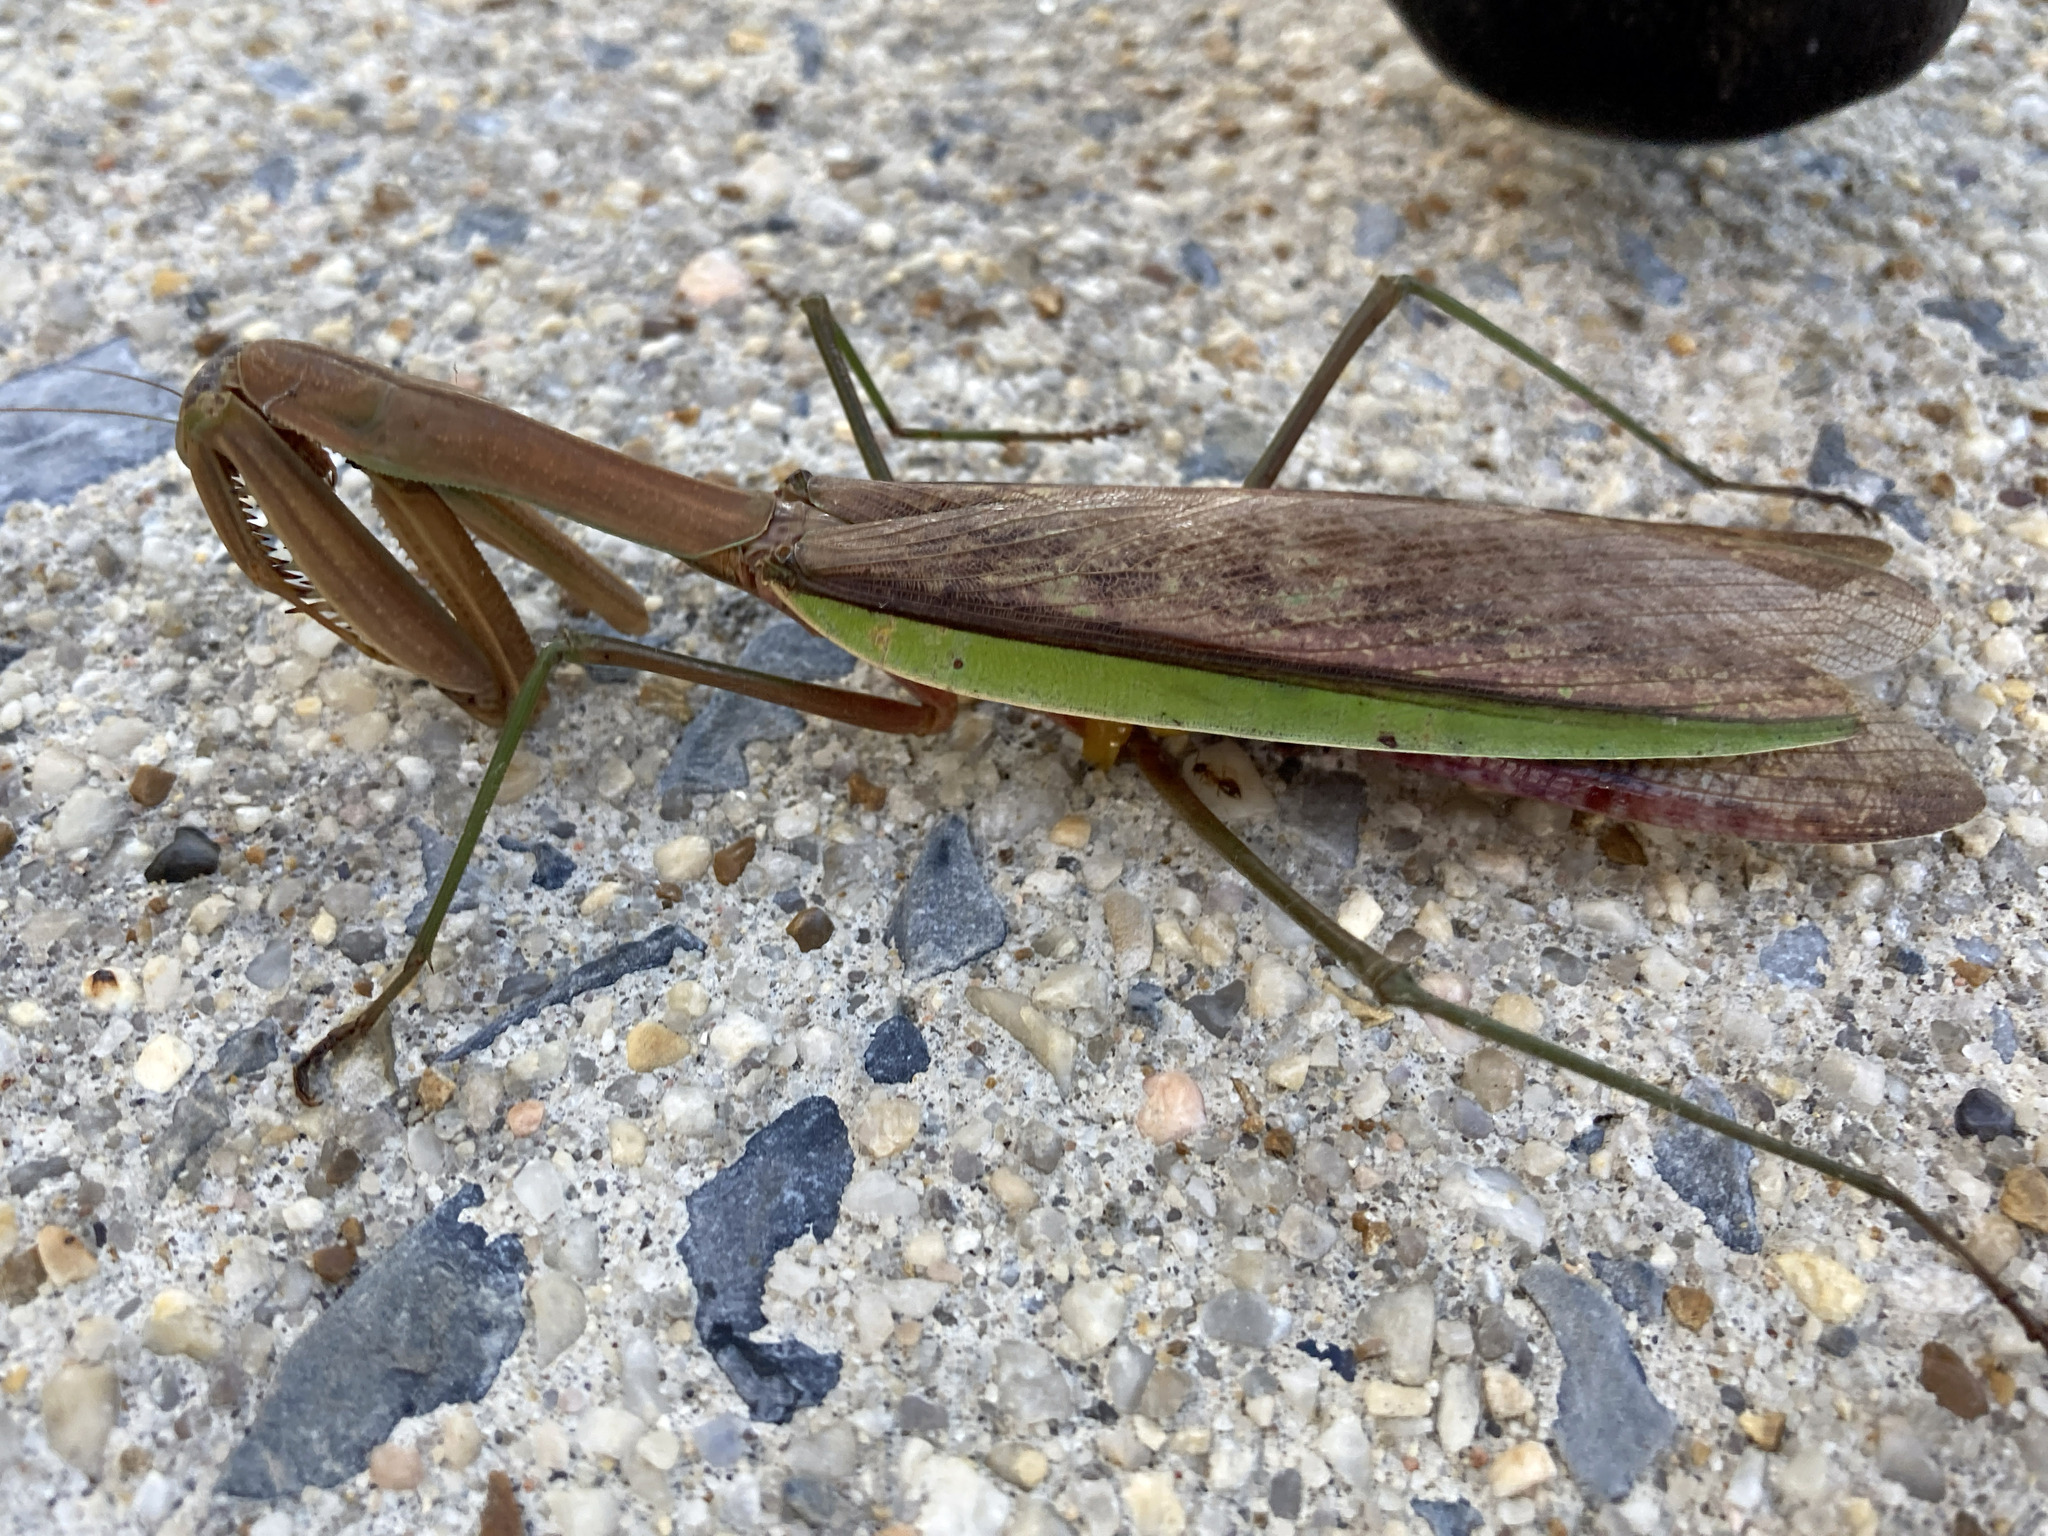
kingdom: Animalia
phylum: Arthropoda
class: Insecta
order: Mantodea
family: Mantidae
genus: Tenodera
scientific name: Tenodera sinensis
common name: Chinese mantis
